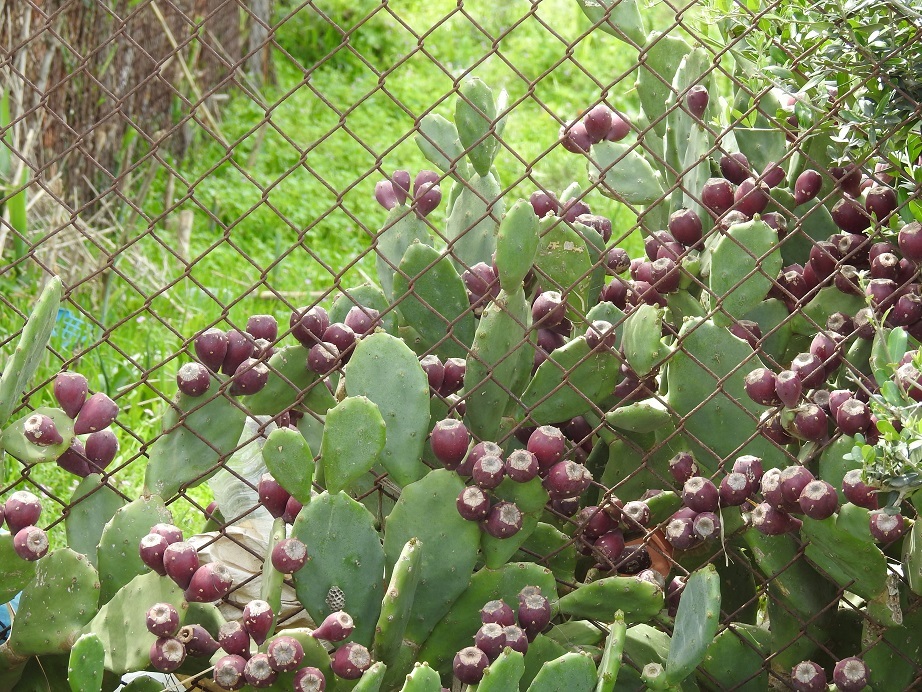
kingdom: Plantae
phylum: Tracheophyta
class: Magnoliopsida
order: Caryophyllales
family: Cactaceae
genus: Opuntia
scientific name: Opuntia stricta
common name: Erect pricklypear
